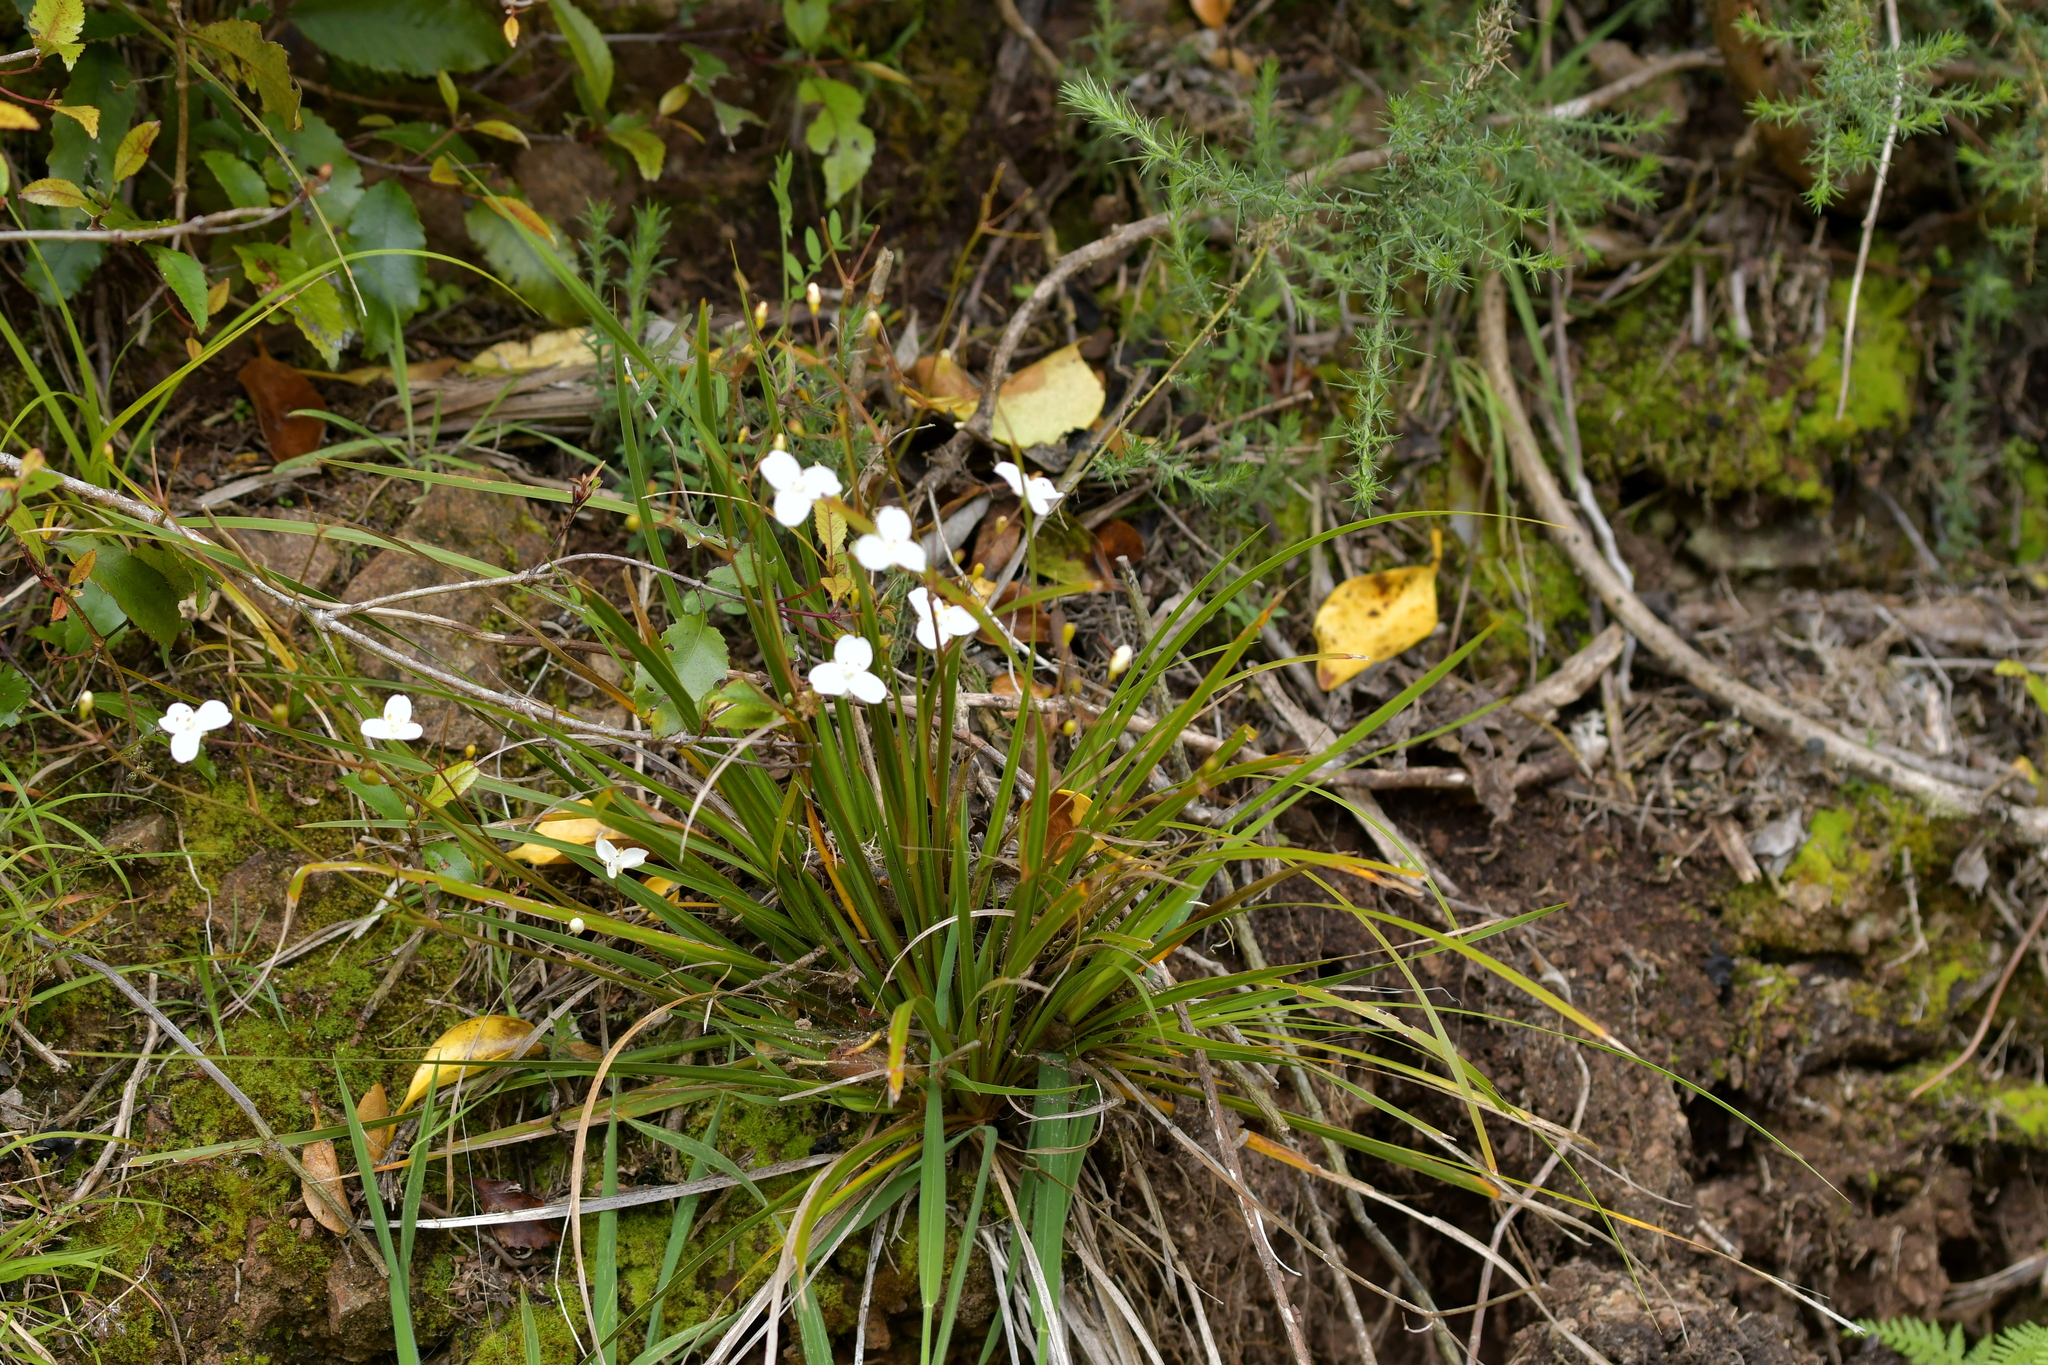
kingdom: Plantae
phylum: Tracheophyta
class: Liliopsida
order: Asparagales
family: Iridaceae
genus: Libertia
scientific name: Libertia ixioides
